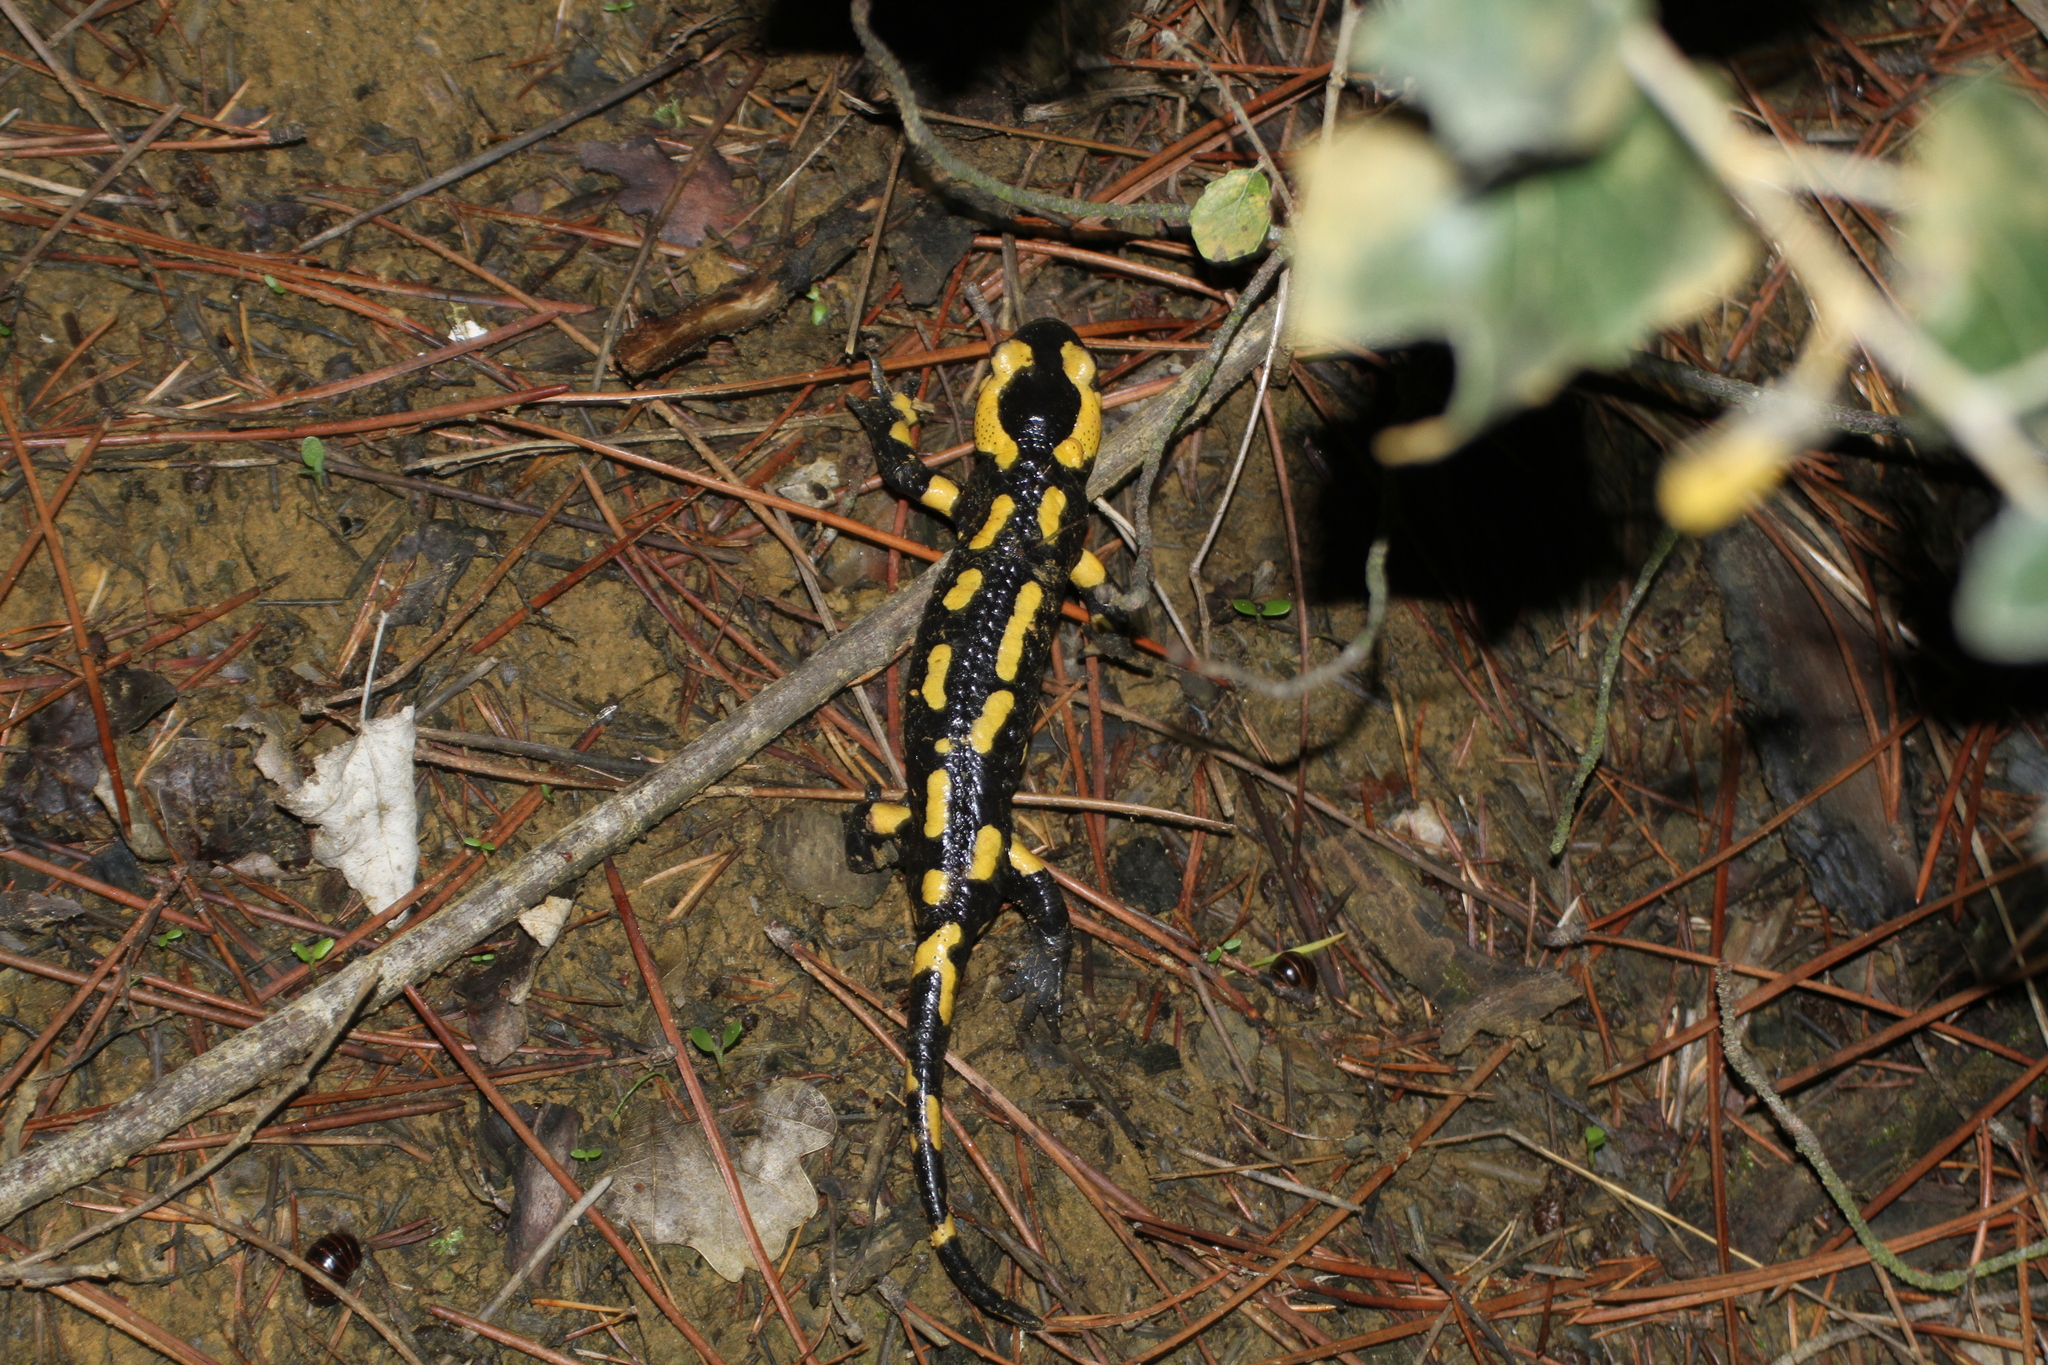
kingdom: Animalia
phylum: Chordata
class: Amphibia
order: Caudata
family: Salamandridae
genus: Salamandra
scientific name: Salamandra salamandra
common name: Fire salamander
